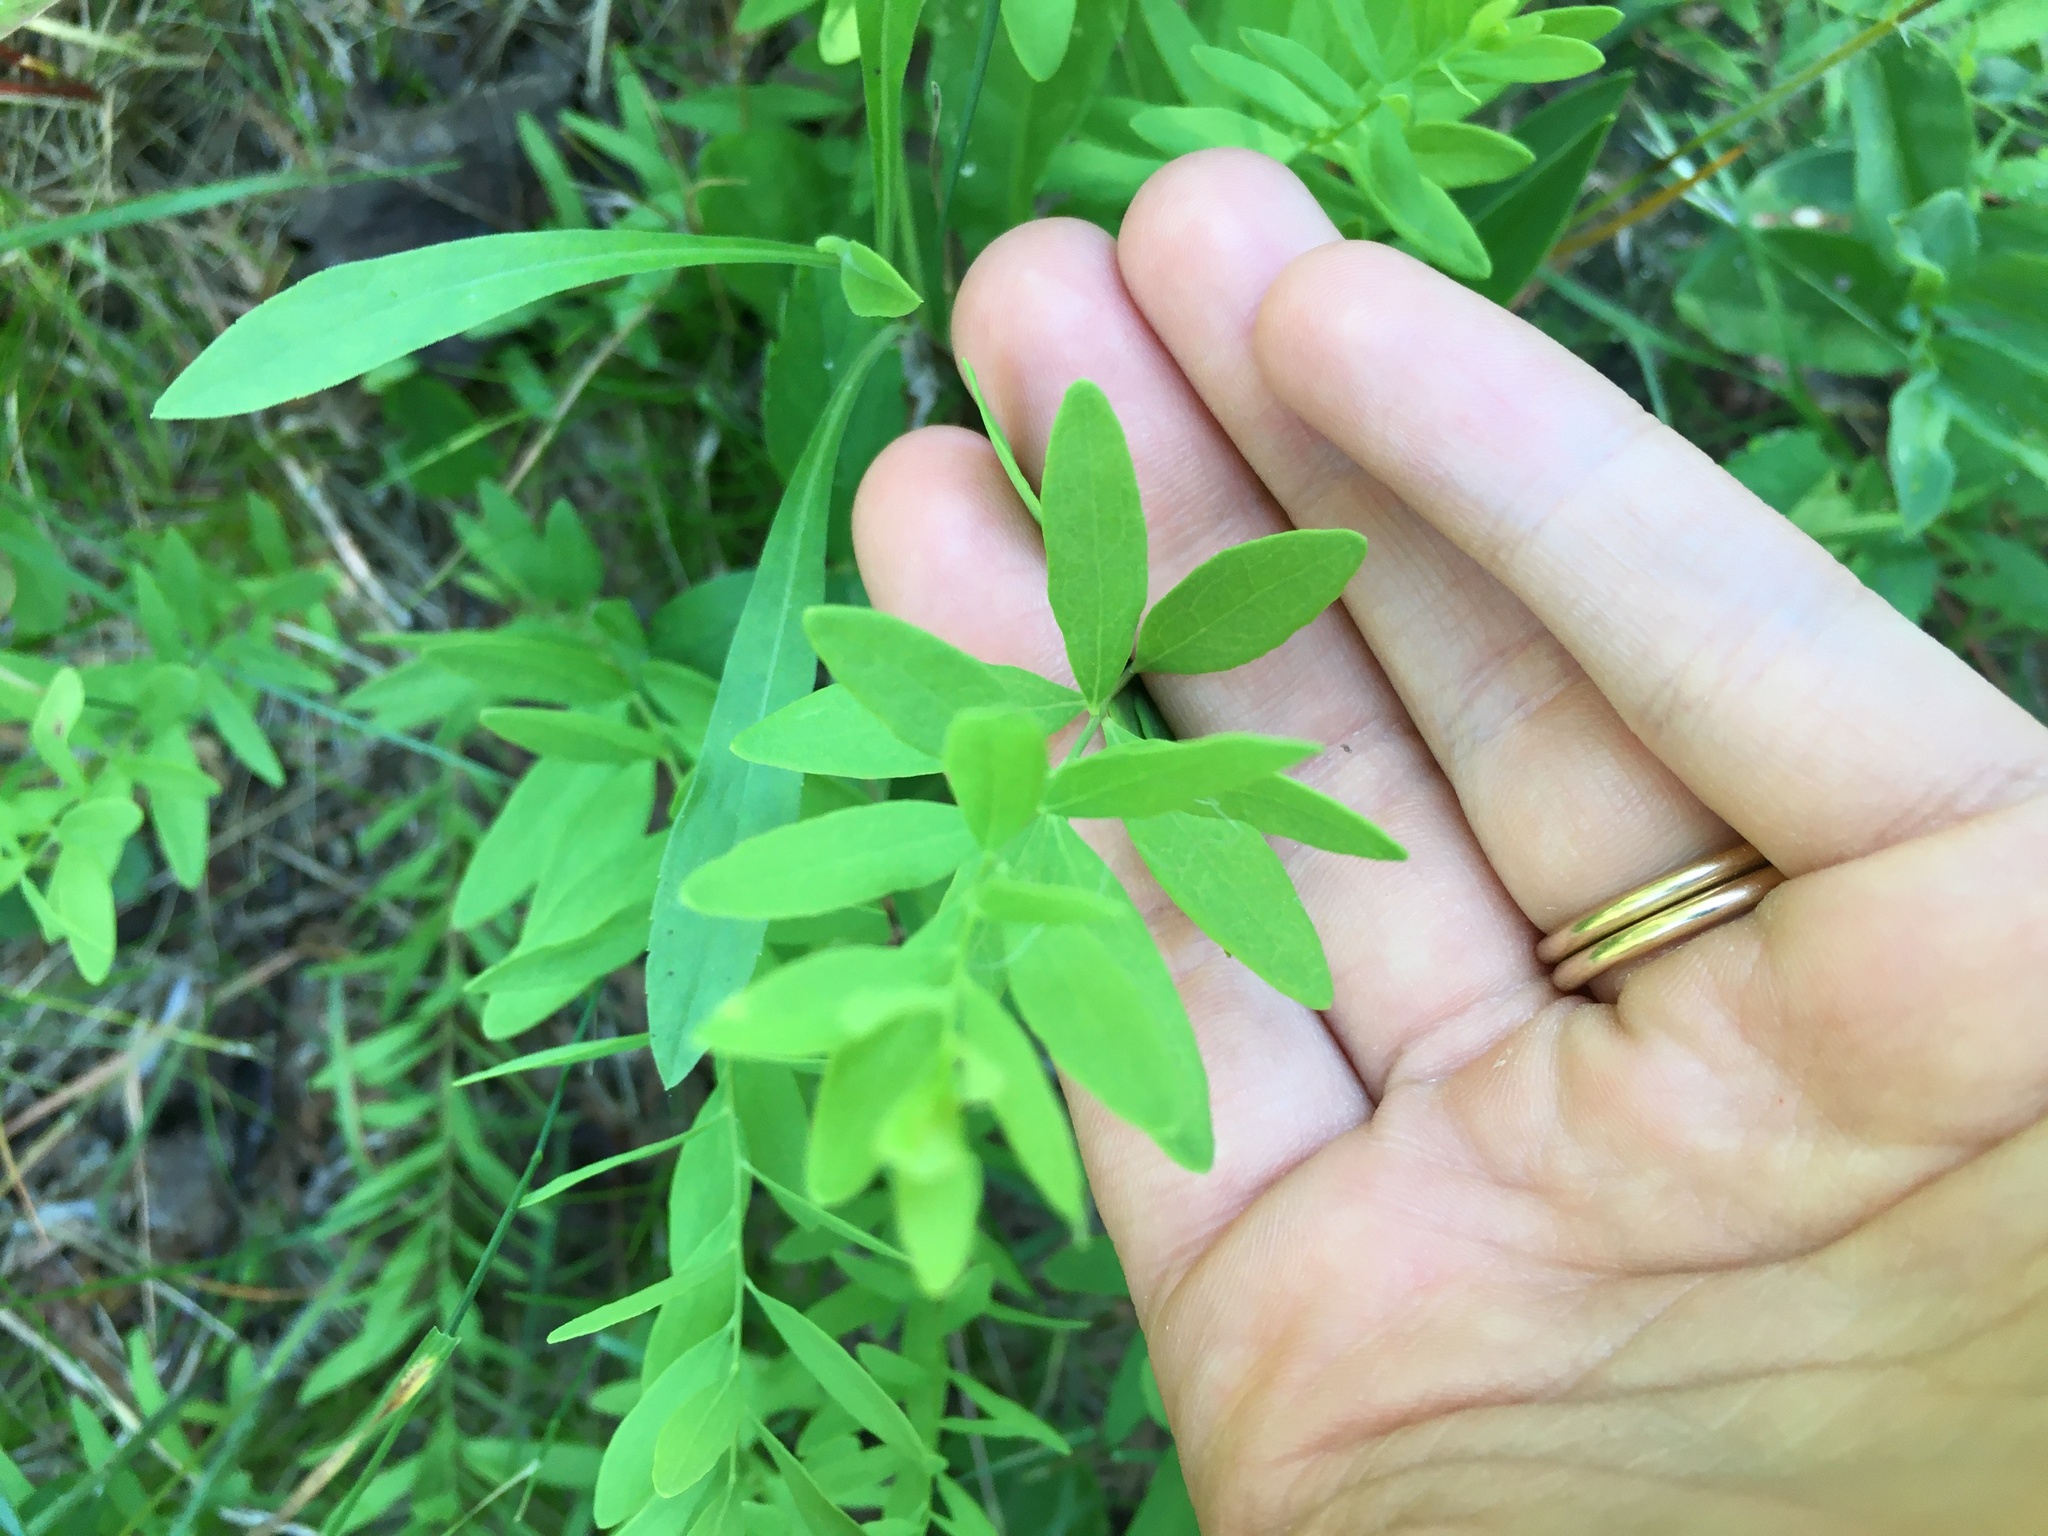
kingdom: Plantae
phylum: Tracheophyta
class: Magnoliopsida
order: Santalales
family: Comandraceae
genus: Comandra
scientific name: Comandra umbellata
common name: Bastard toadflax
